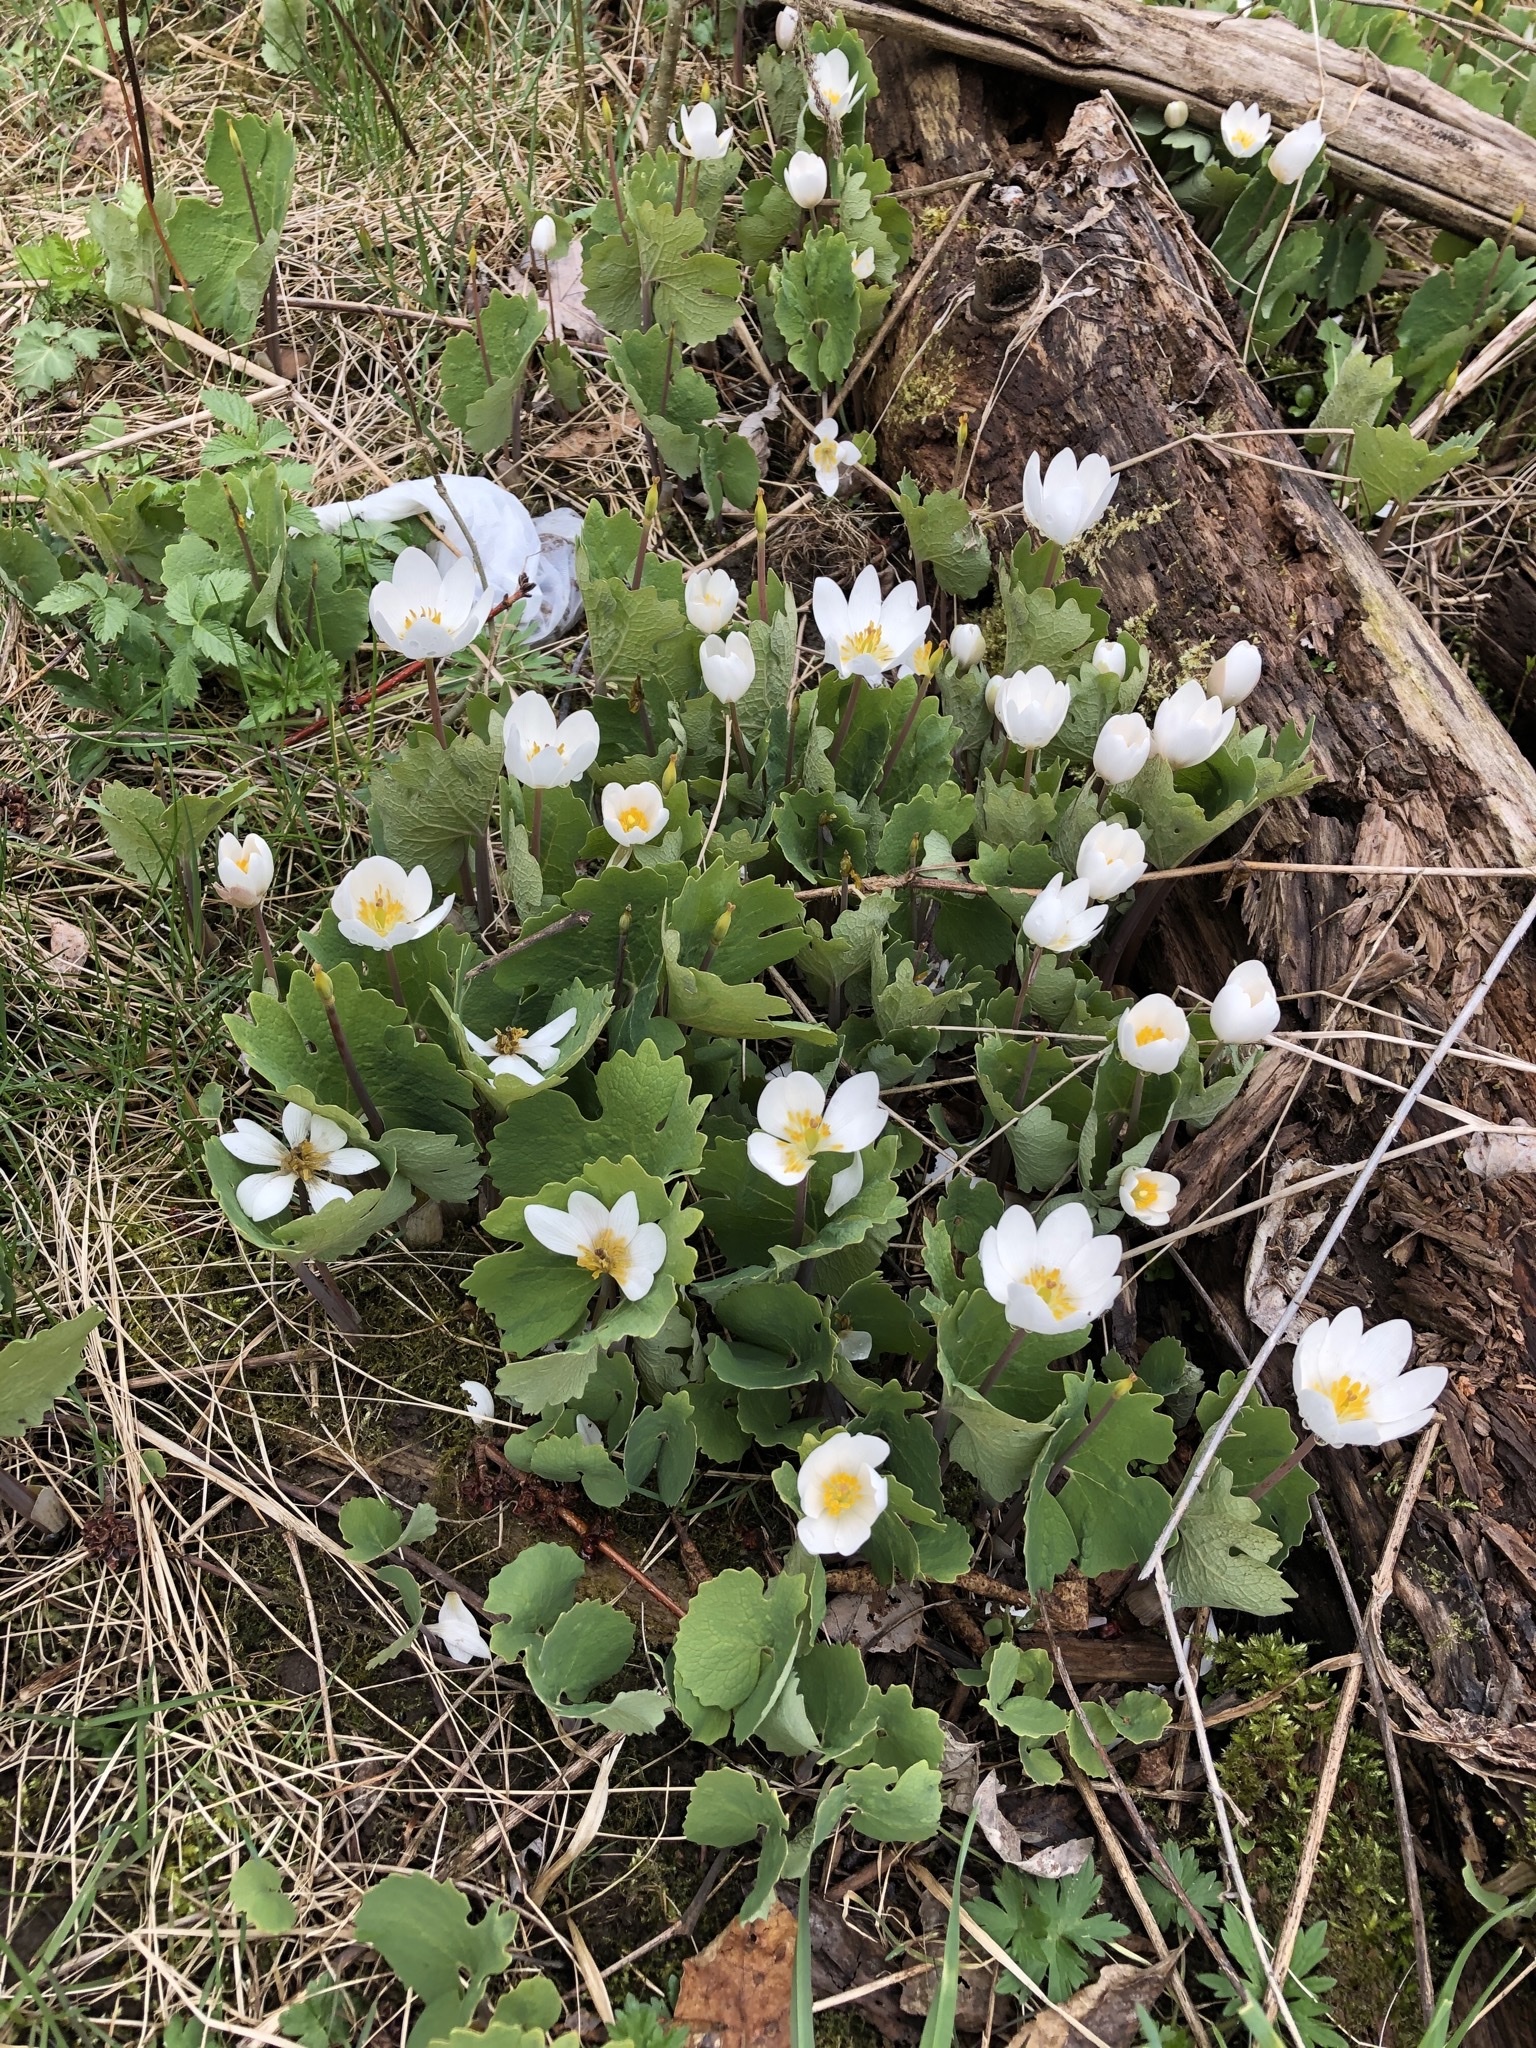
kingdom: Plantae
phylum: Tracheophyta
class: Magnoliopsida
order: Ranunculales
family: Papaveraceae
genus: Sanguinaria
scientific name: Sanguinaria canadensis
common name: Bloodroot
